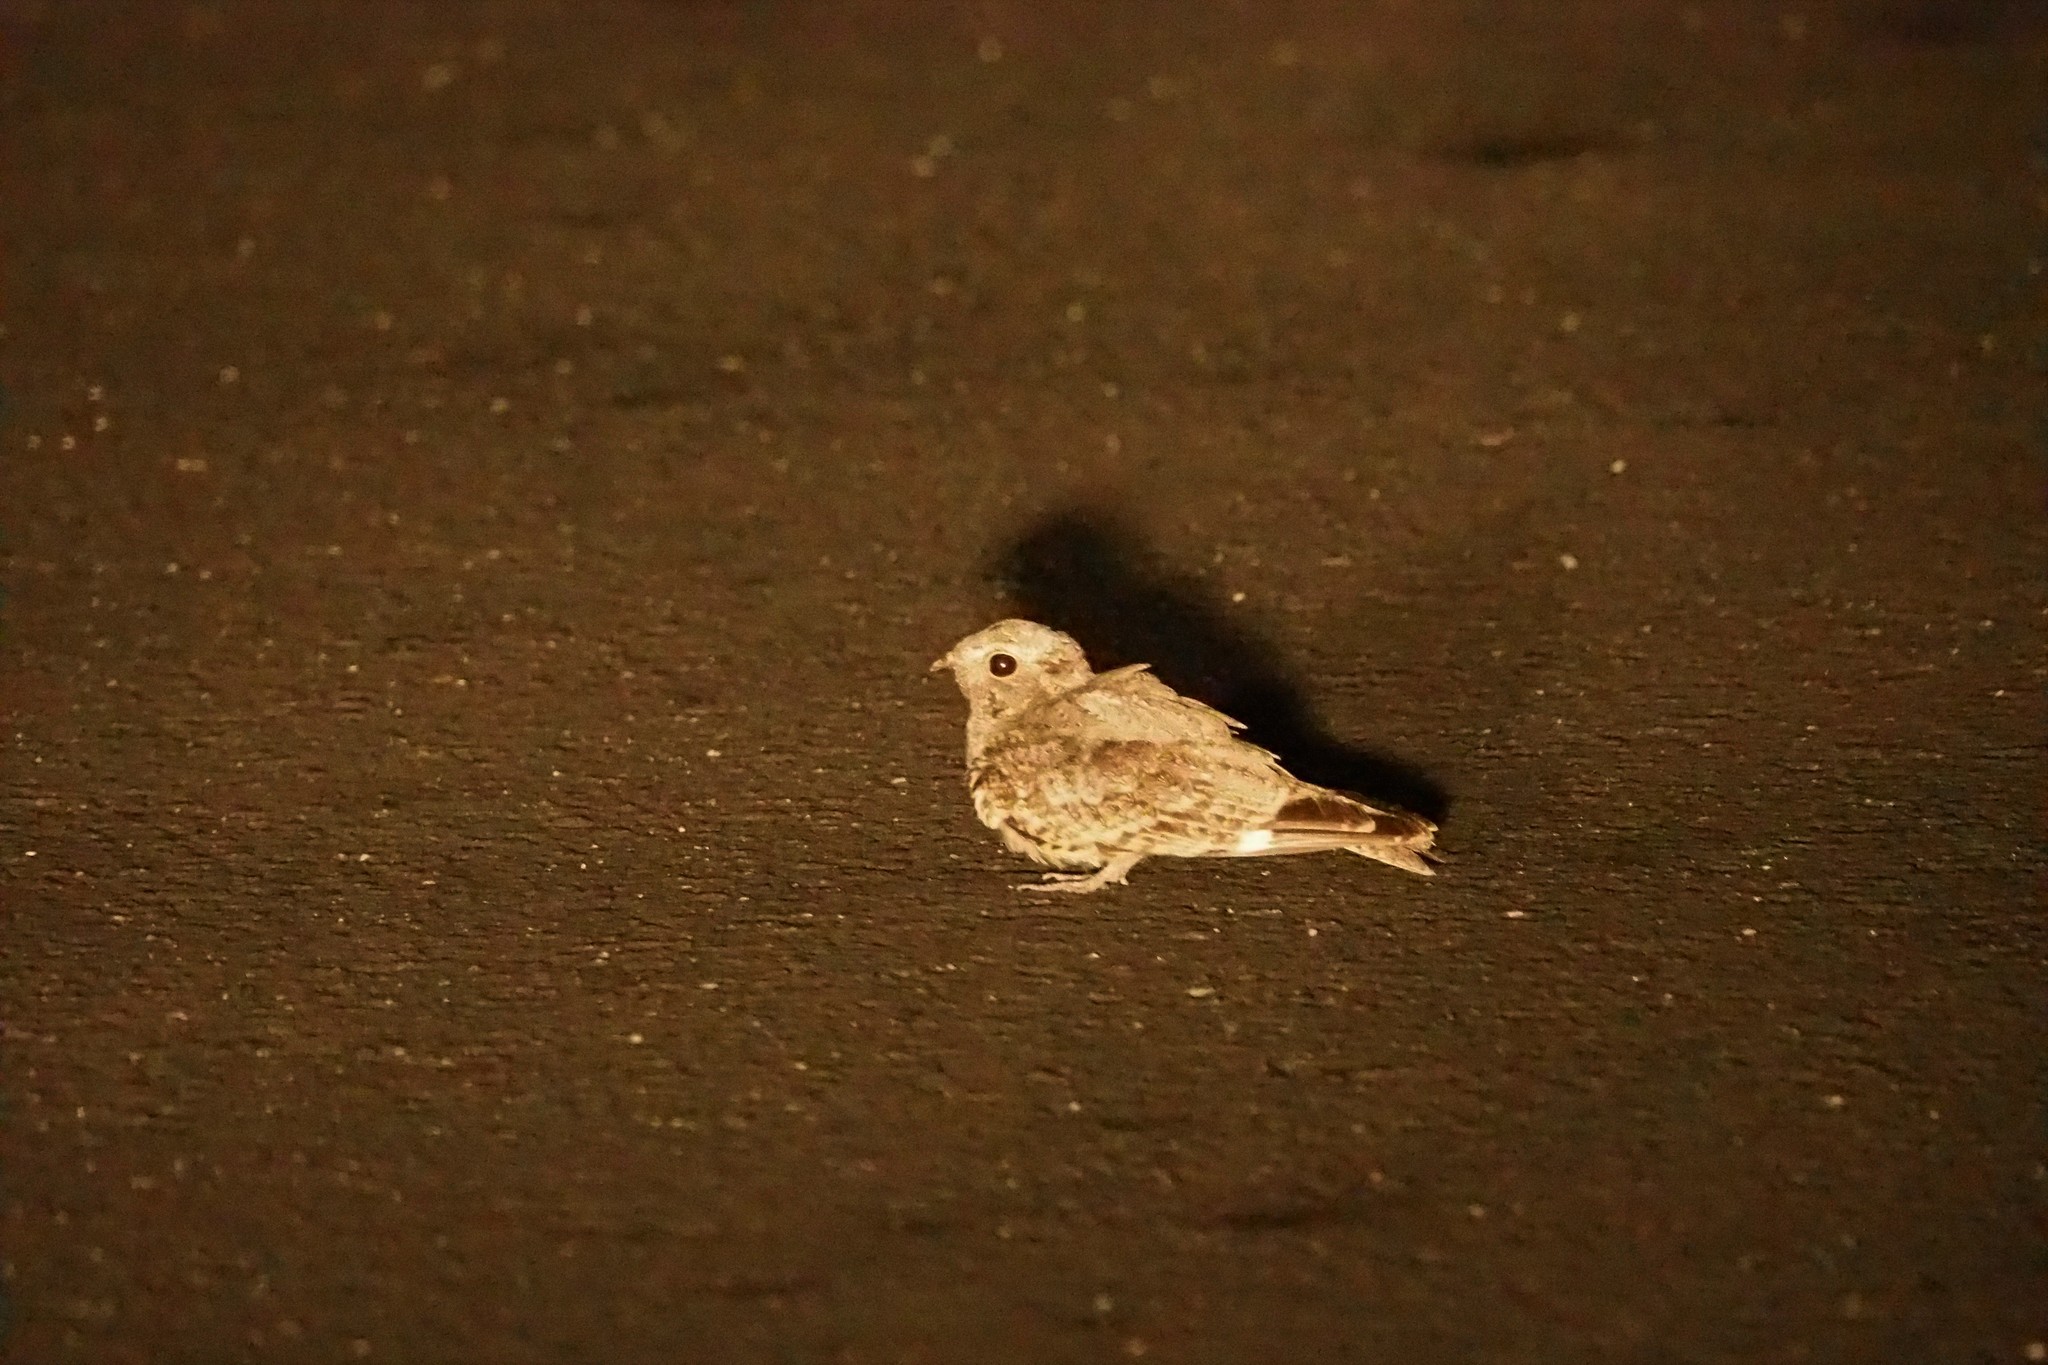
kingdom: Animalia
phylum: Chordata
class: Aves
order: Caprimulgiformes
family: Caprimulgidae
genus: Caprimulgus
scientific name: Caprimulgus affinis
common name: Savanna nightjar
